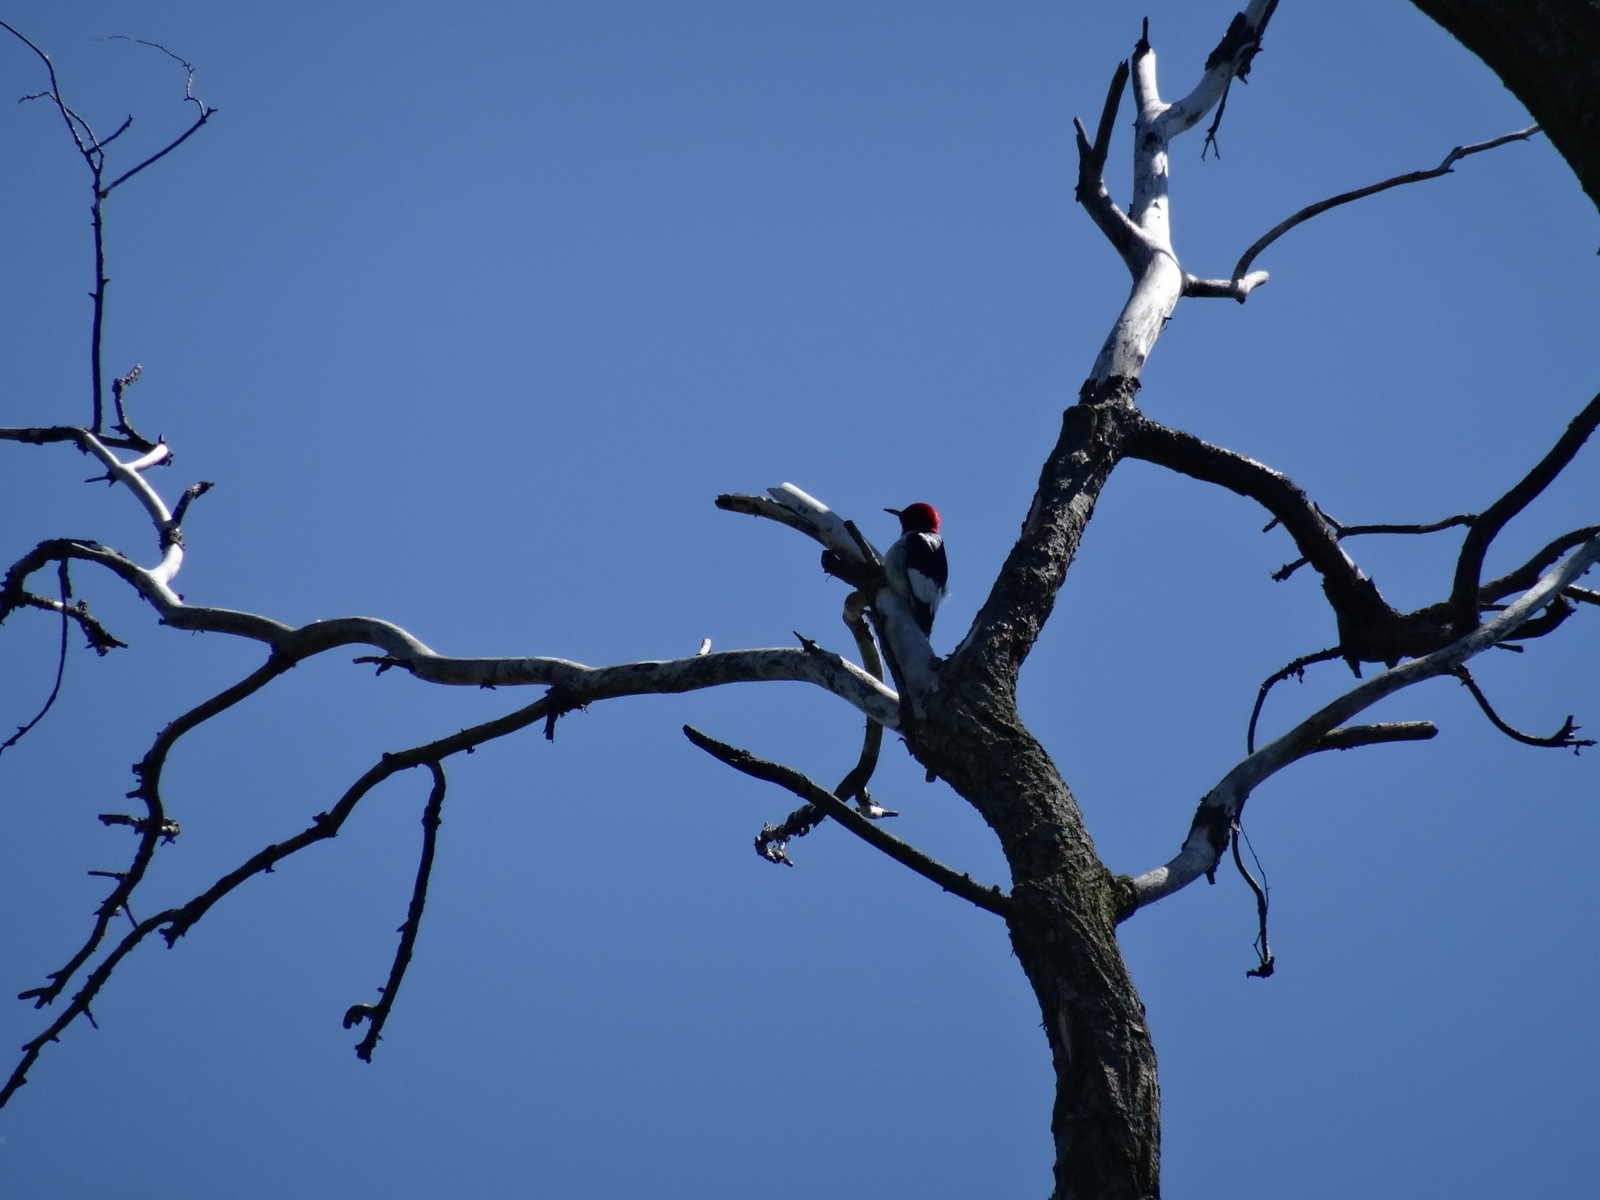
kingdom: Animalia
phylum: Chordata
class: Aves
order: Piciformes
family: Picidae
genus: Melanerpes
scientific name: Melanerpes erythrocephalus
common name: Red-headed woodpecker
